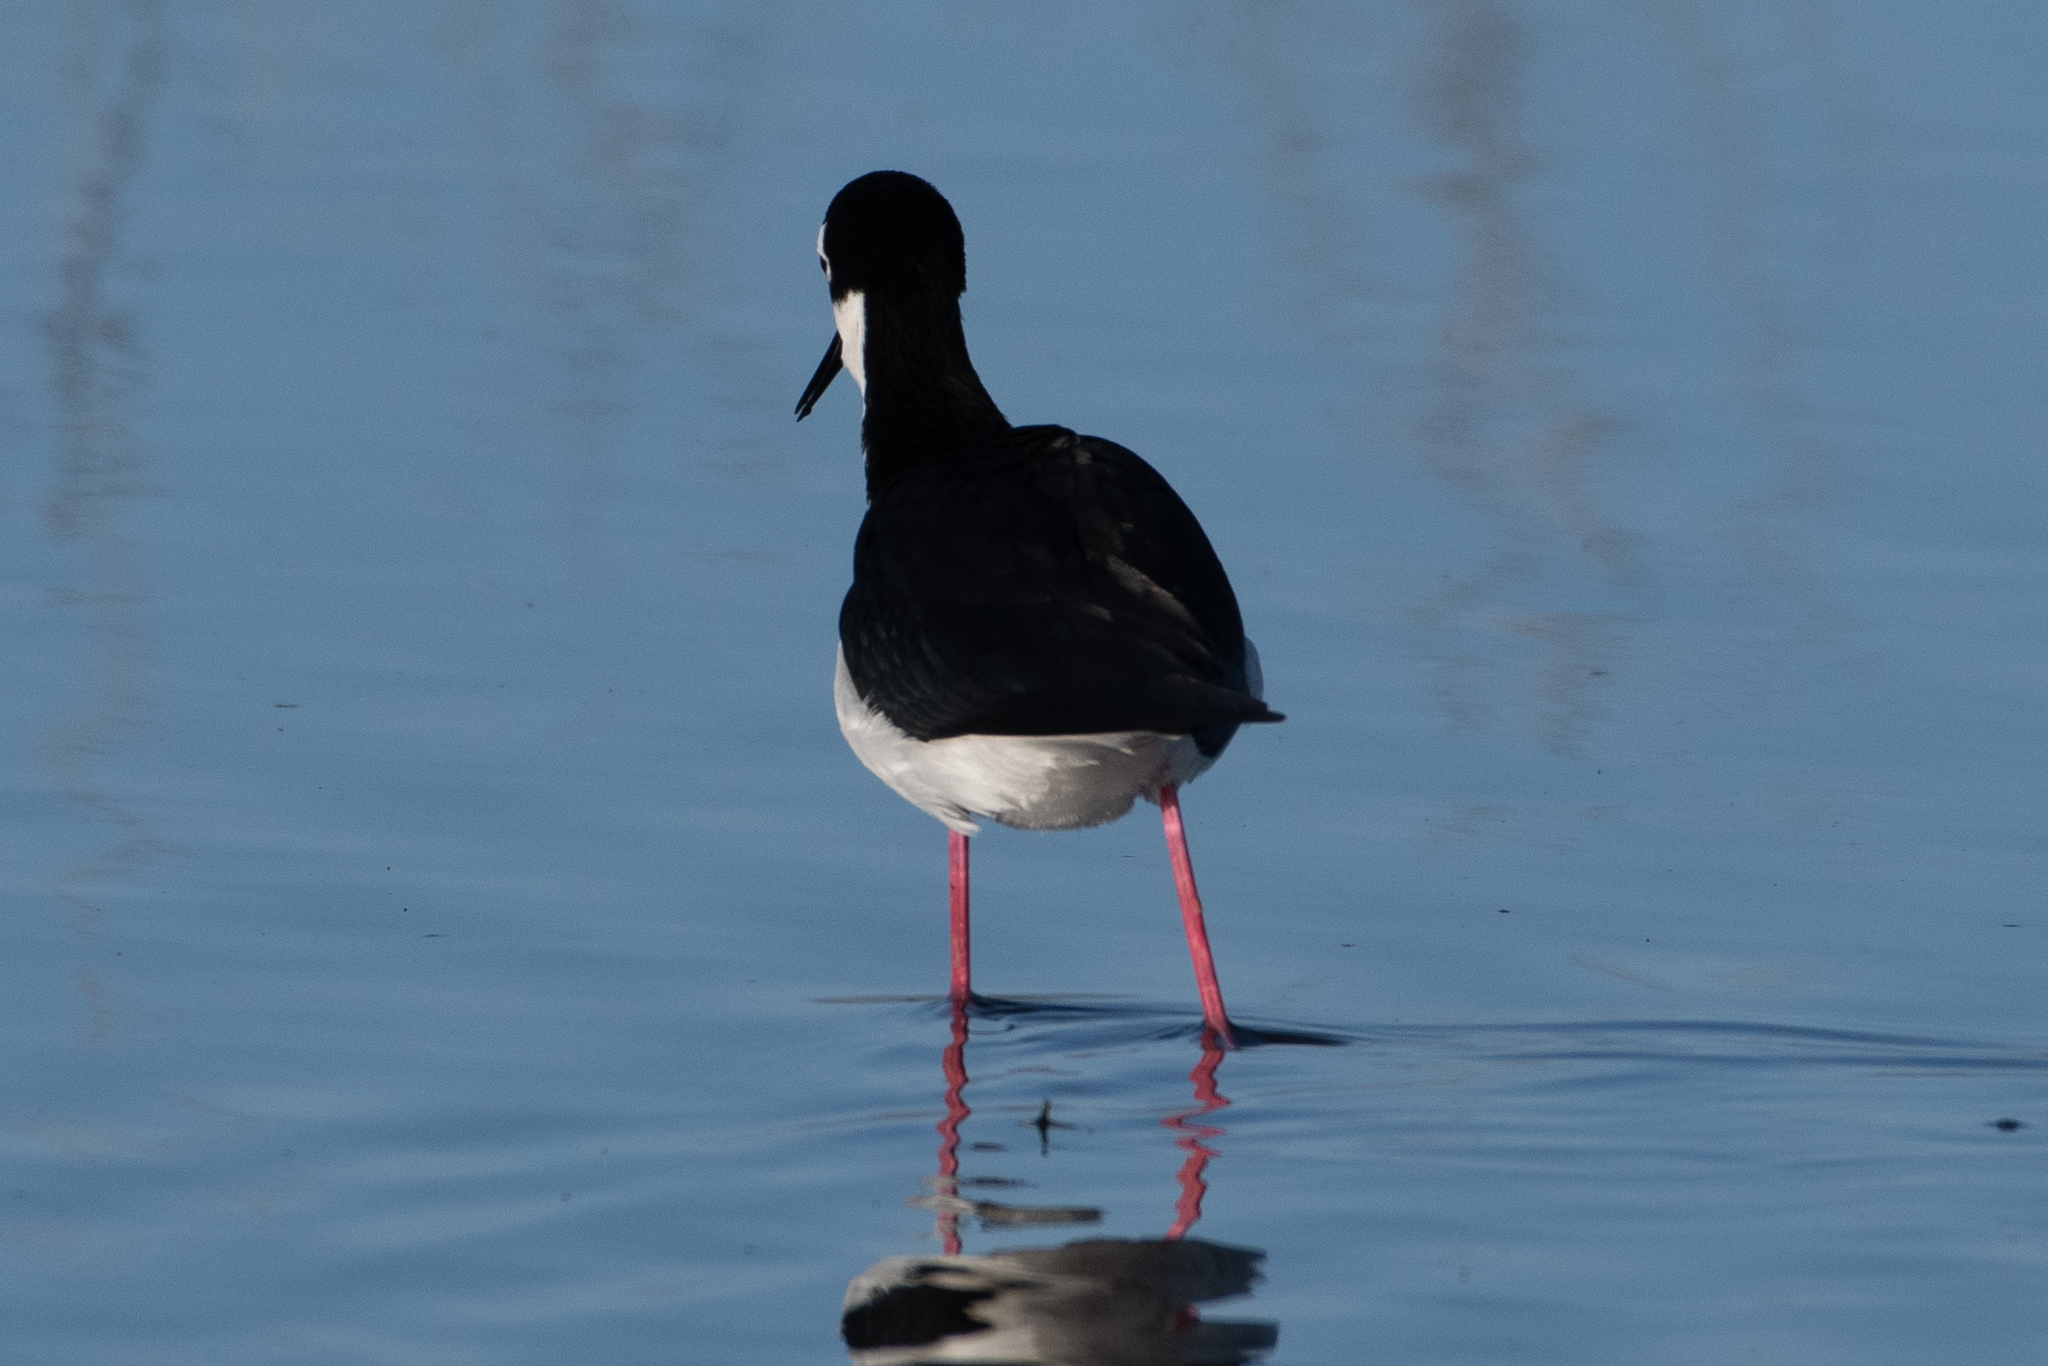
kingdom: Animalia
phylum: Chordata
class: Aves
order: Charadriiformes
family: Recurvirostridae
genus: Himantopus
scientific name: Himantopus mexicanus
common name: Black-necked stilt
